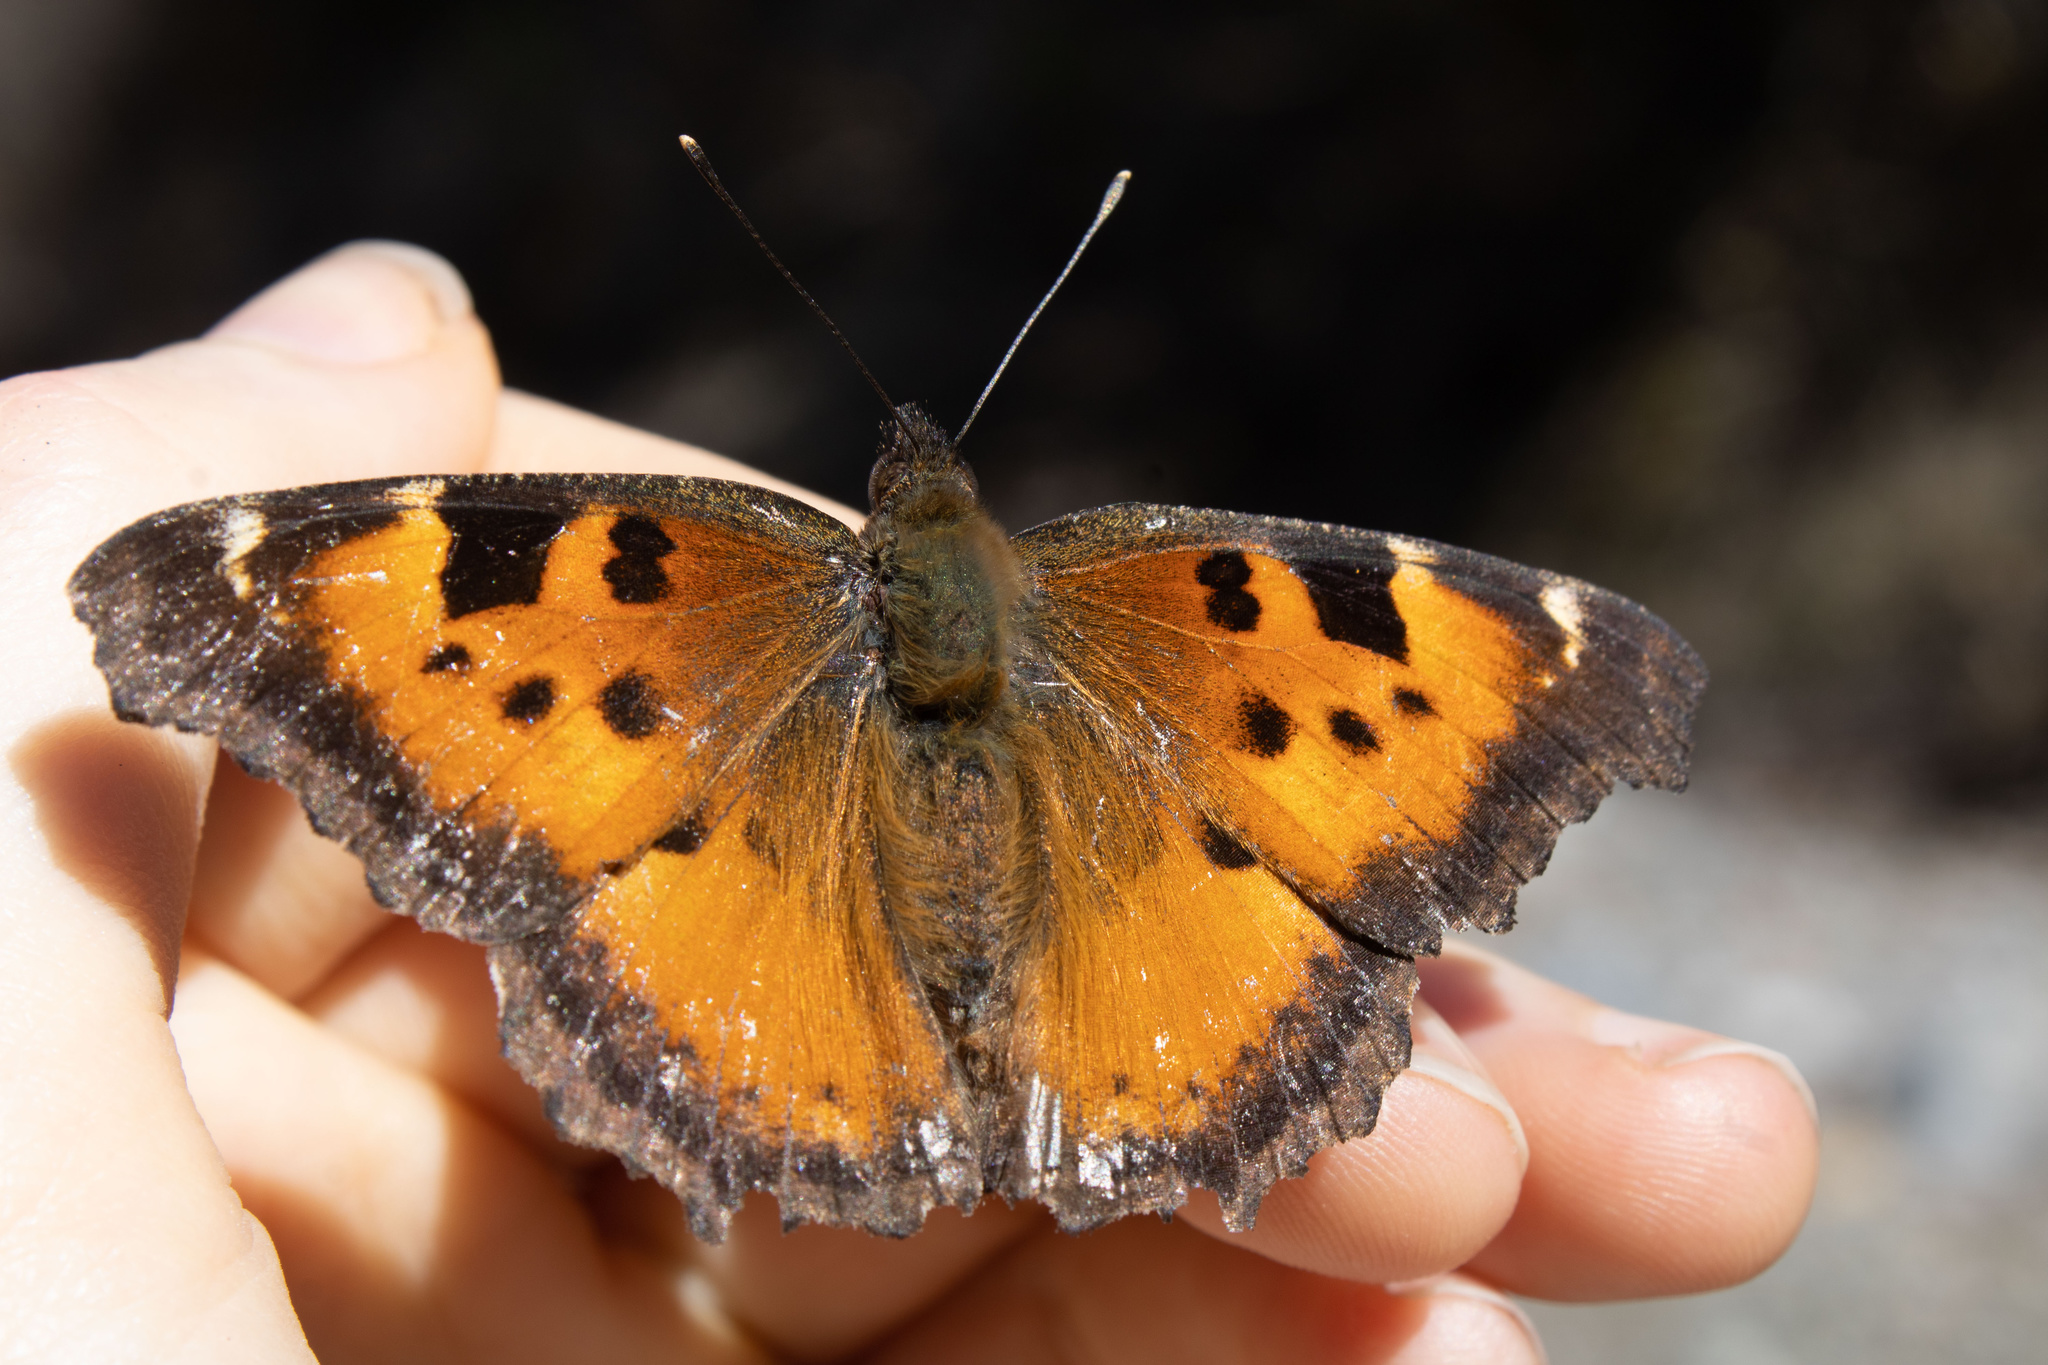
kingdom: Animalia
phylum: Arthropoda
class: Insecta
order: Lepidoptera
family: Nymphalidae
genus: Nymphalis
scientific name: Nymphalis californica
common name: California tortoiseshell
